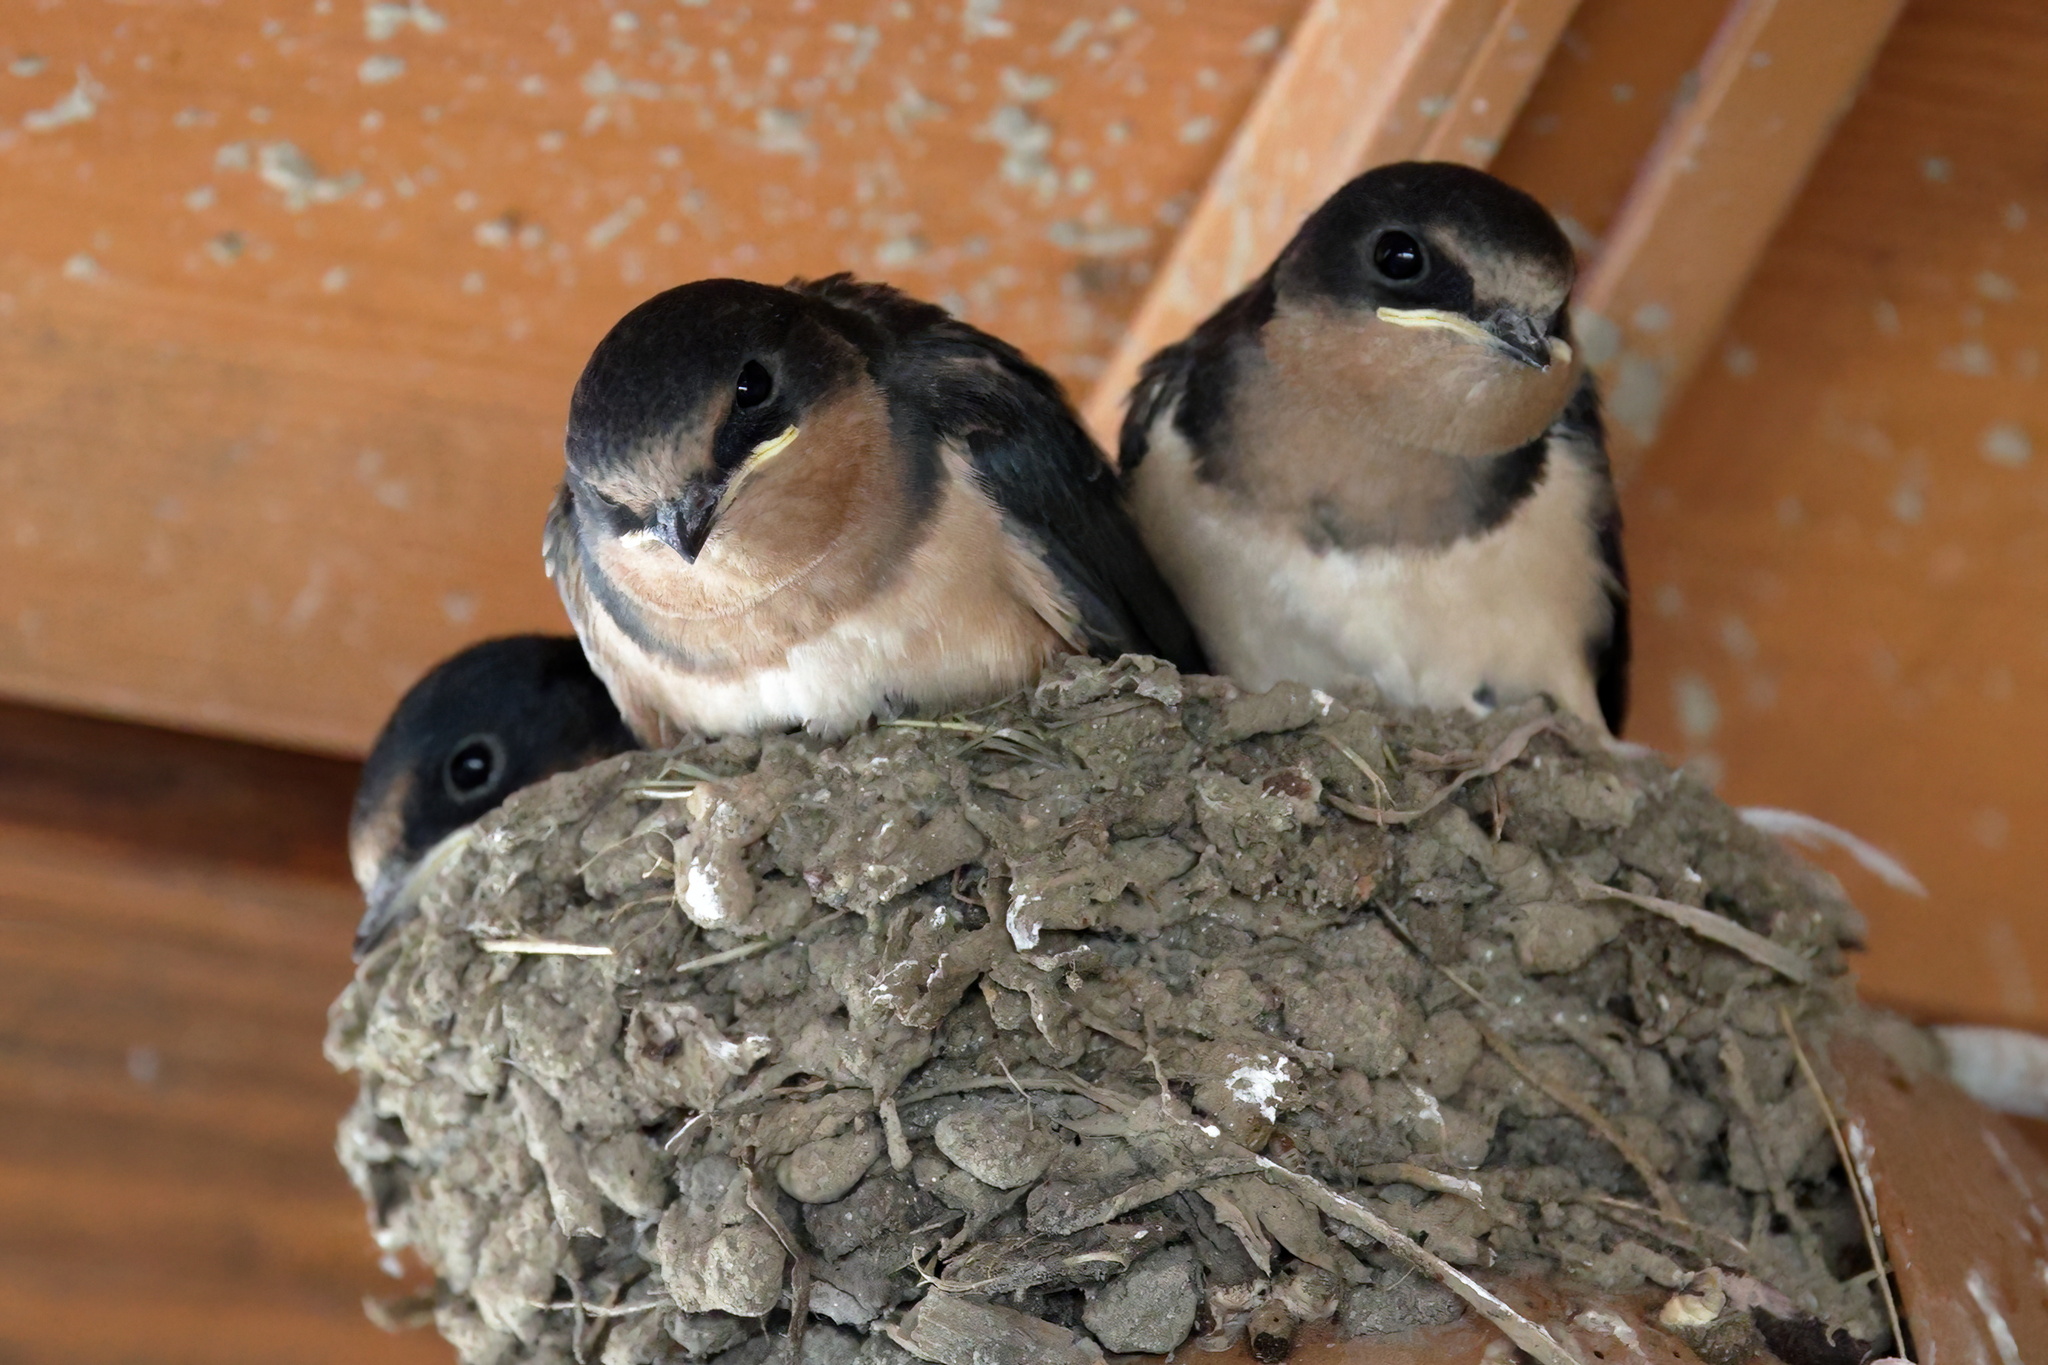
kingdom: Animalia
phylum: Chordata
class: Aves
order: Passeriformes
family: Hirundinidae
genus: Hirundo
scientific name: Hirundo rustica
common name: Barn swallow
